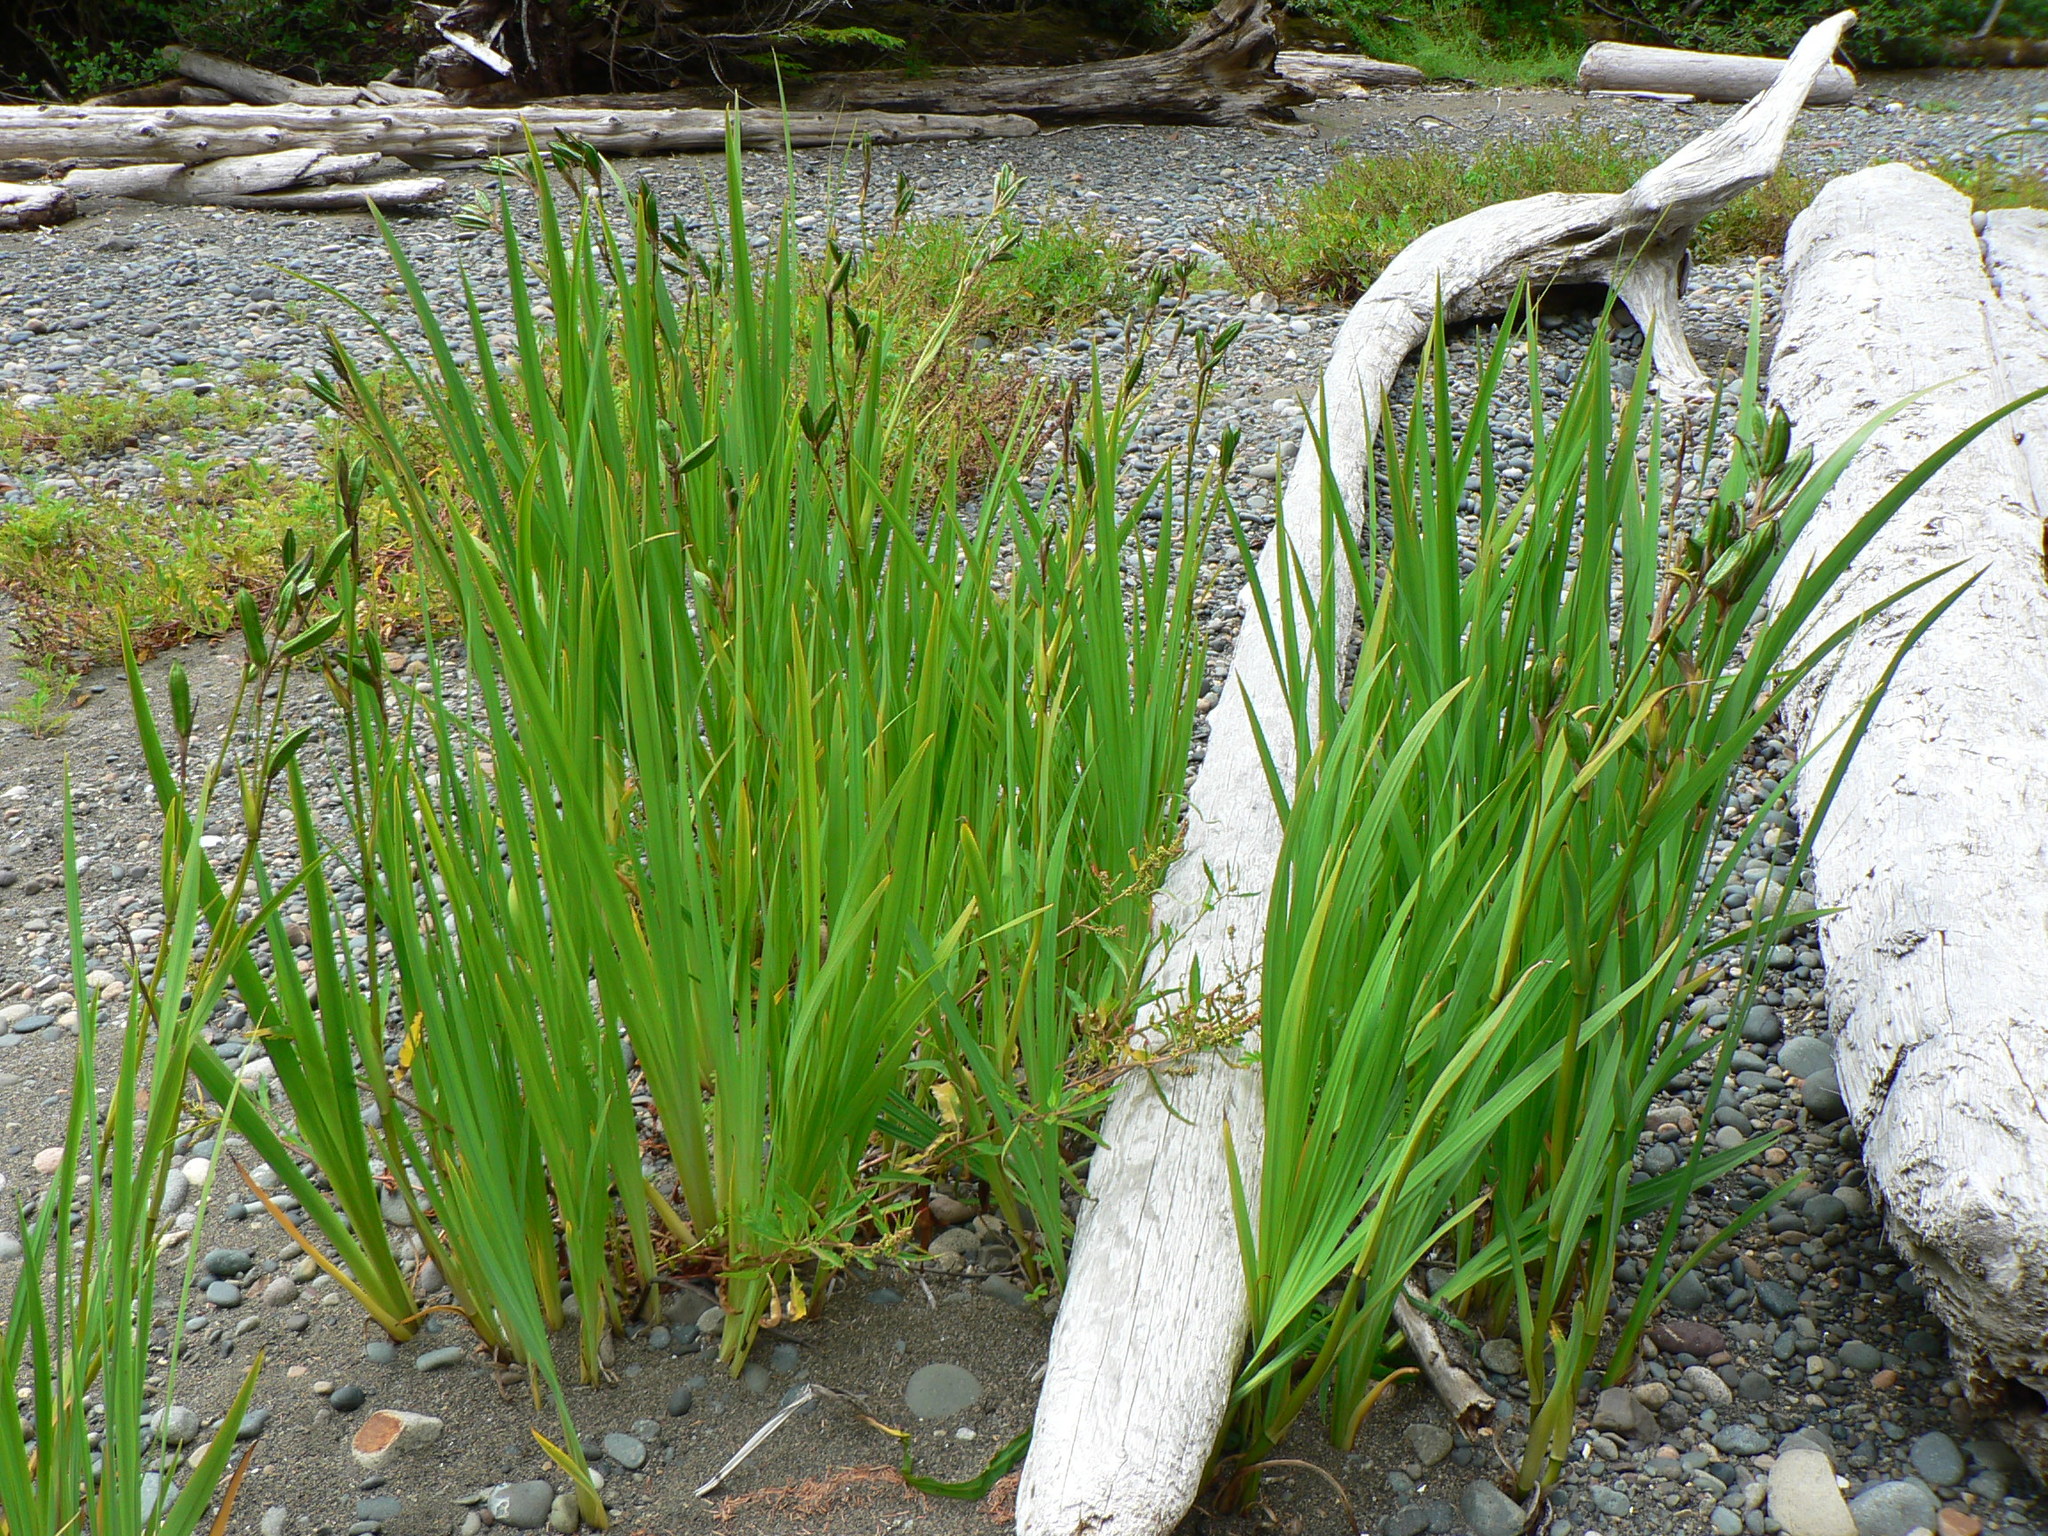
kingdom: Plantae
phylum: Tracheophyta
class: Liliopsida
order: Asparagales
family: Iridaceae
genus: Iris
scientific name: Iris pseudacorus
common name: Yellow flag
